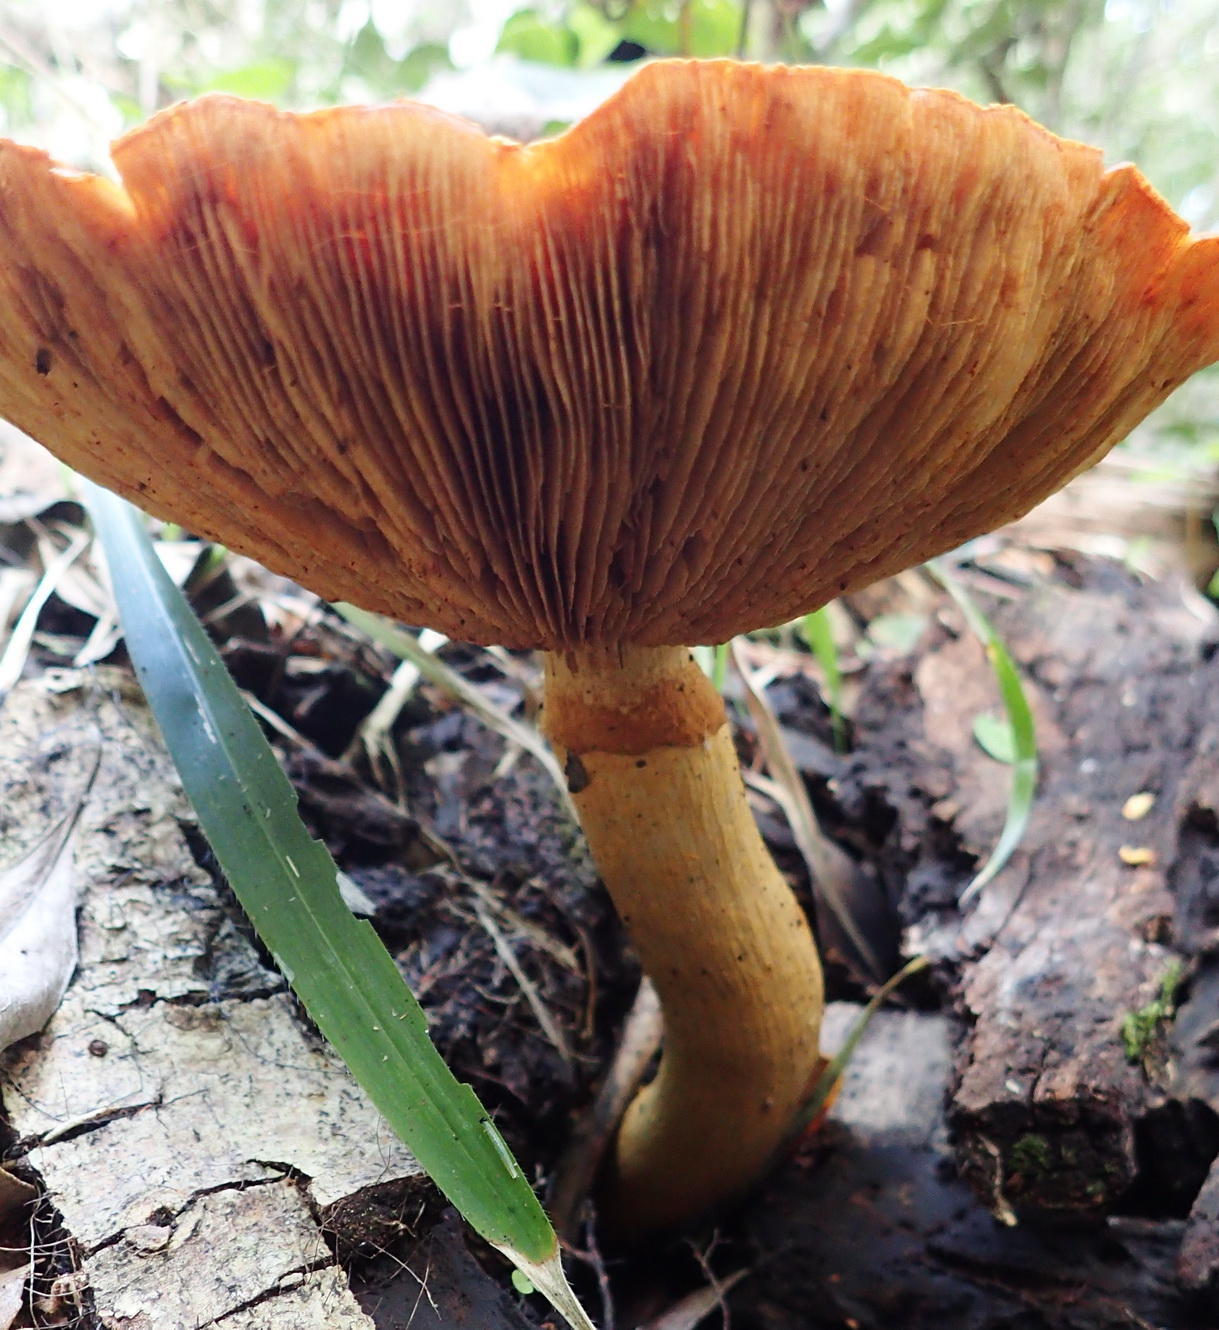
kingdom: Fungi
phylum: Basidiomycota
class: Agaricomycetes
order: Agaricales
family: Hymenogastraceae
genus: Gymnopilus
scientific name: Gymnopilus junonius
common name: Spectacular rustgill
